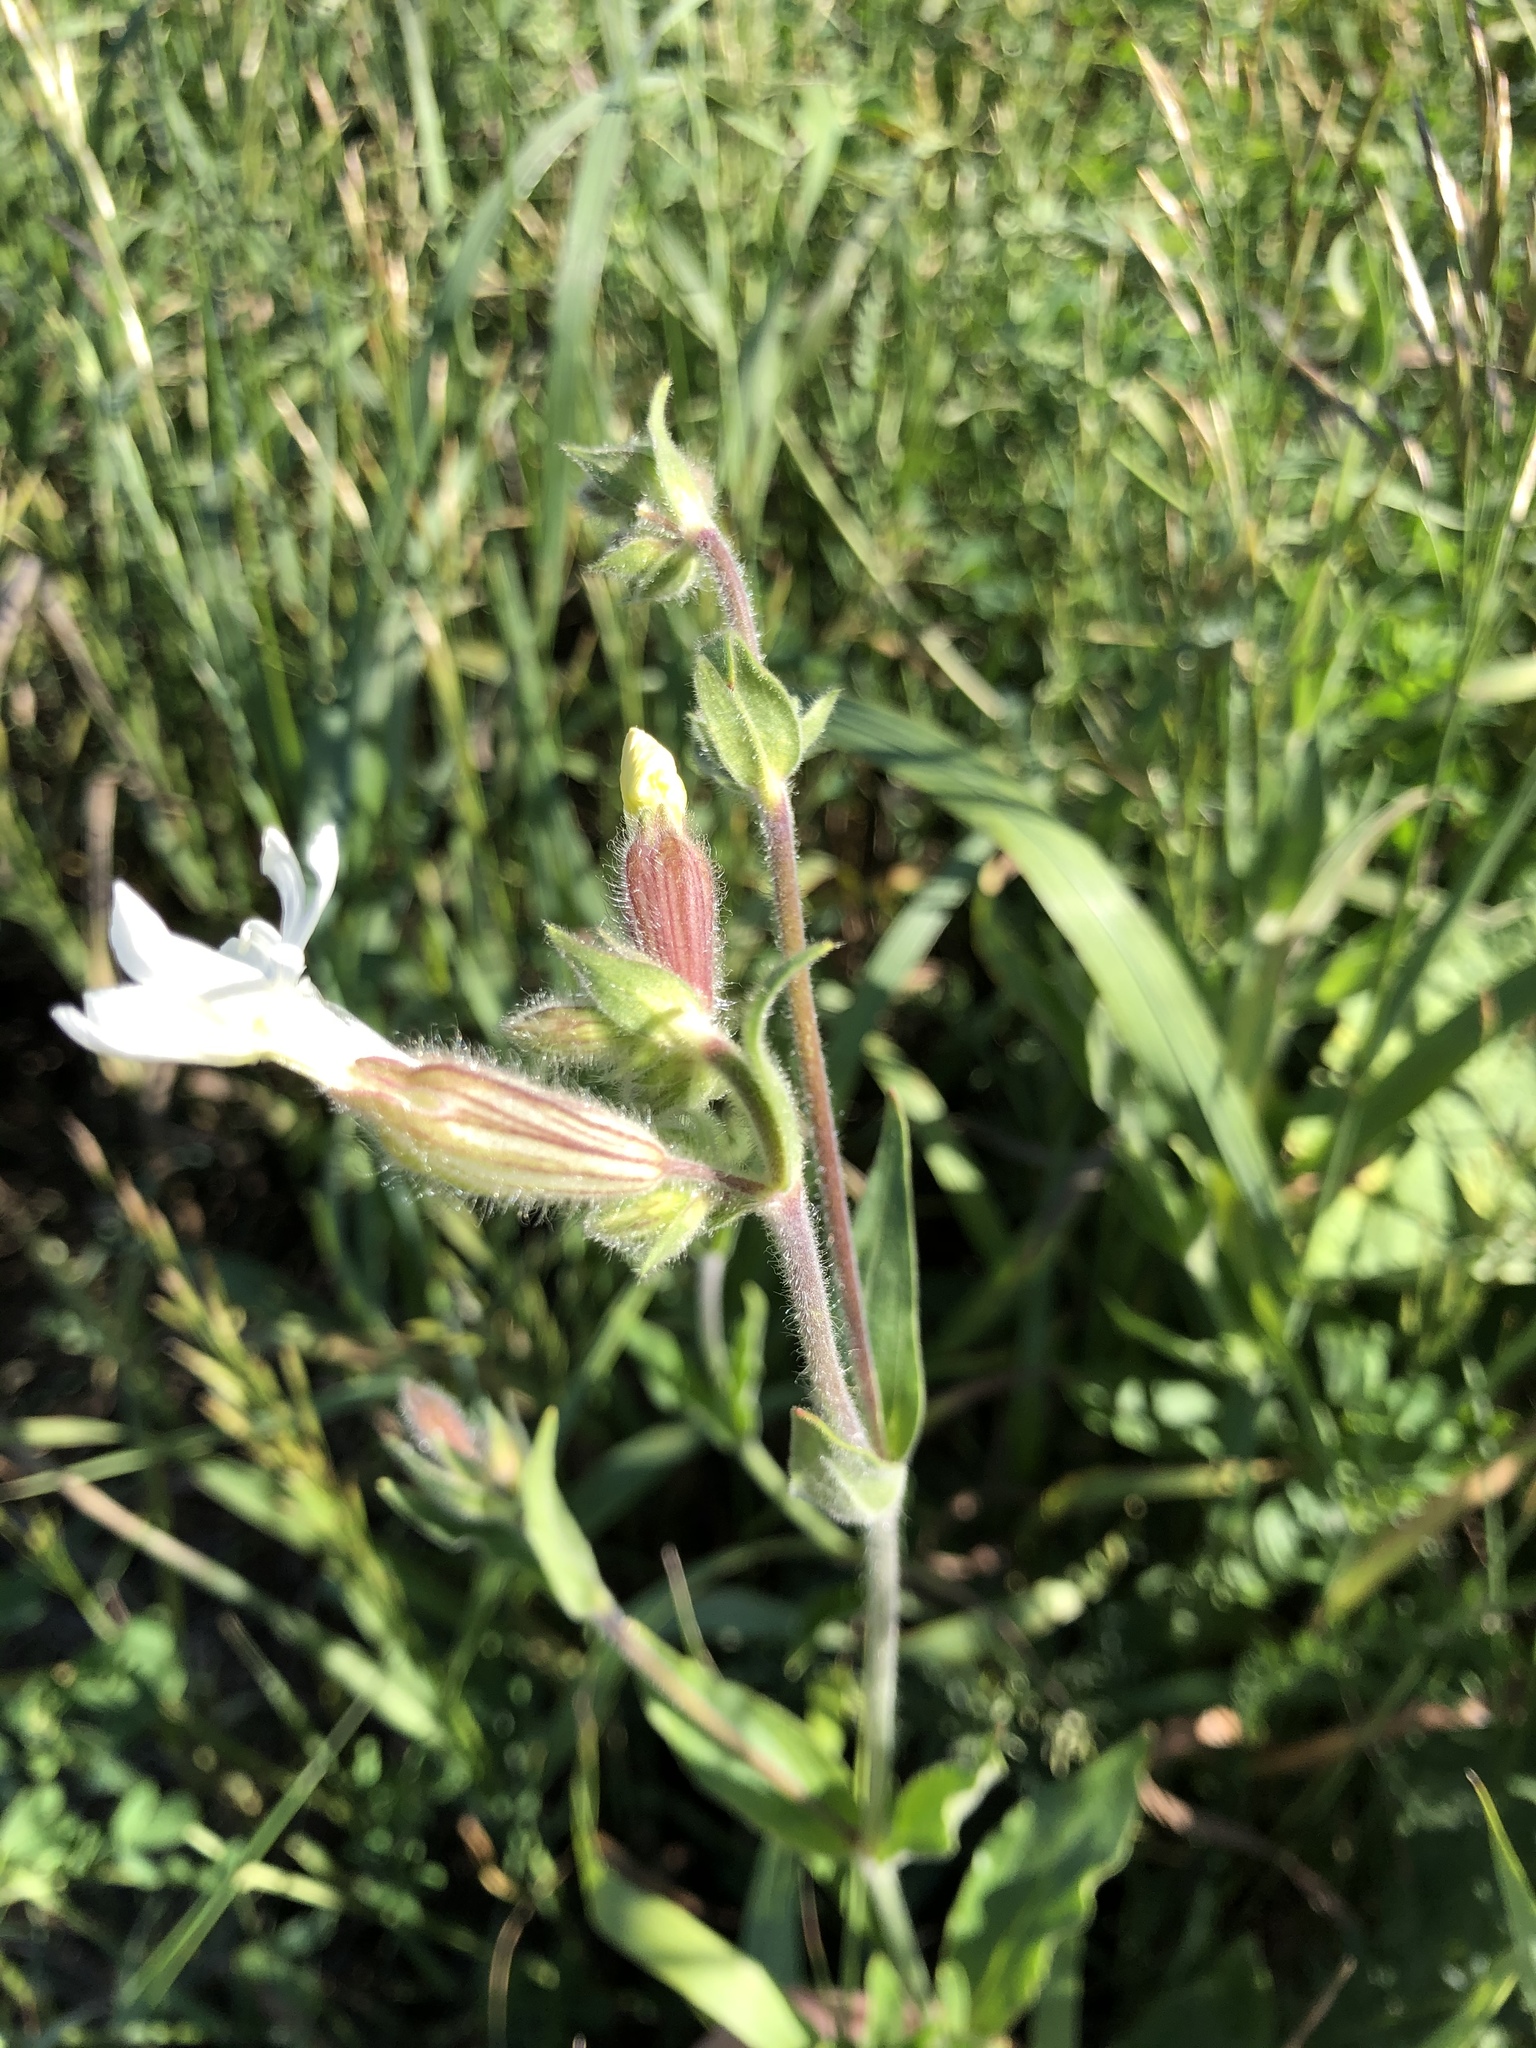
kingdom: Plantae
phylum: Tracheophyta
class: Magnoliopsida
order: Caryophyllales
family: Caryophyllaceae
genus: Silene
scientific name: Silene latifolia
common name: White campion
